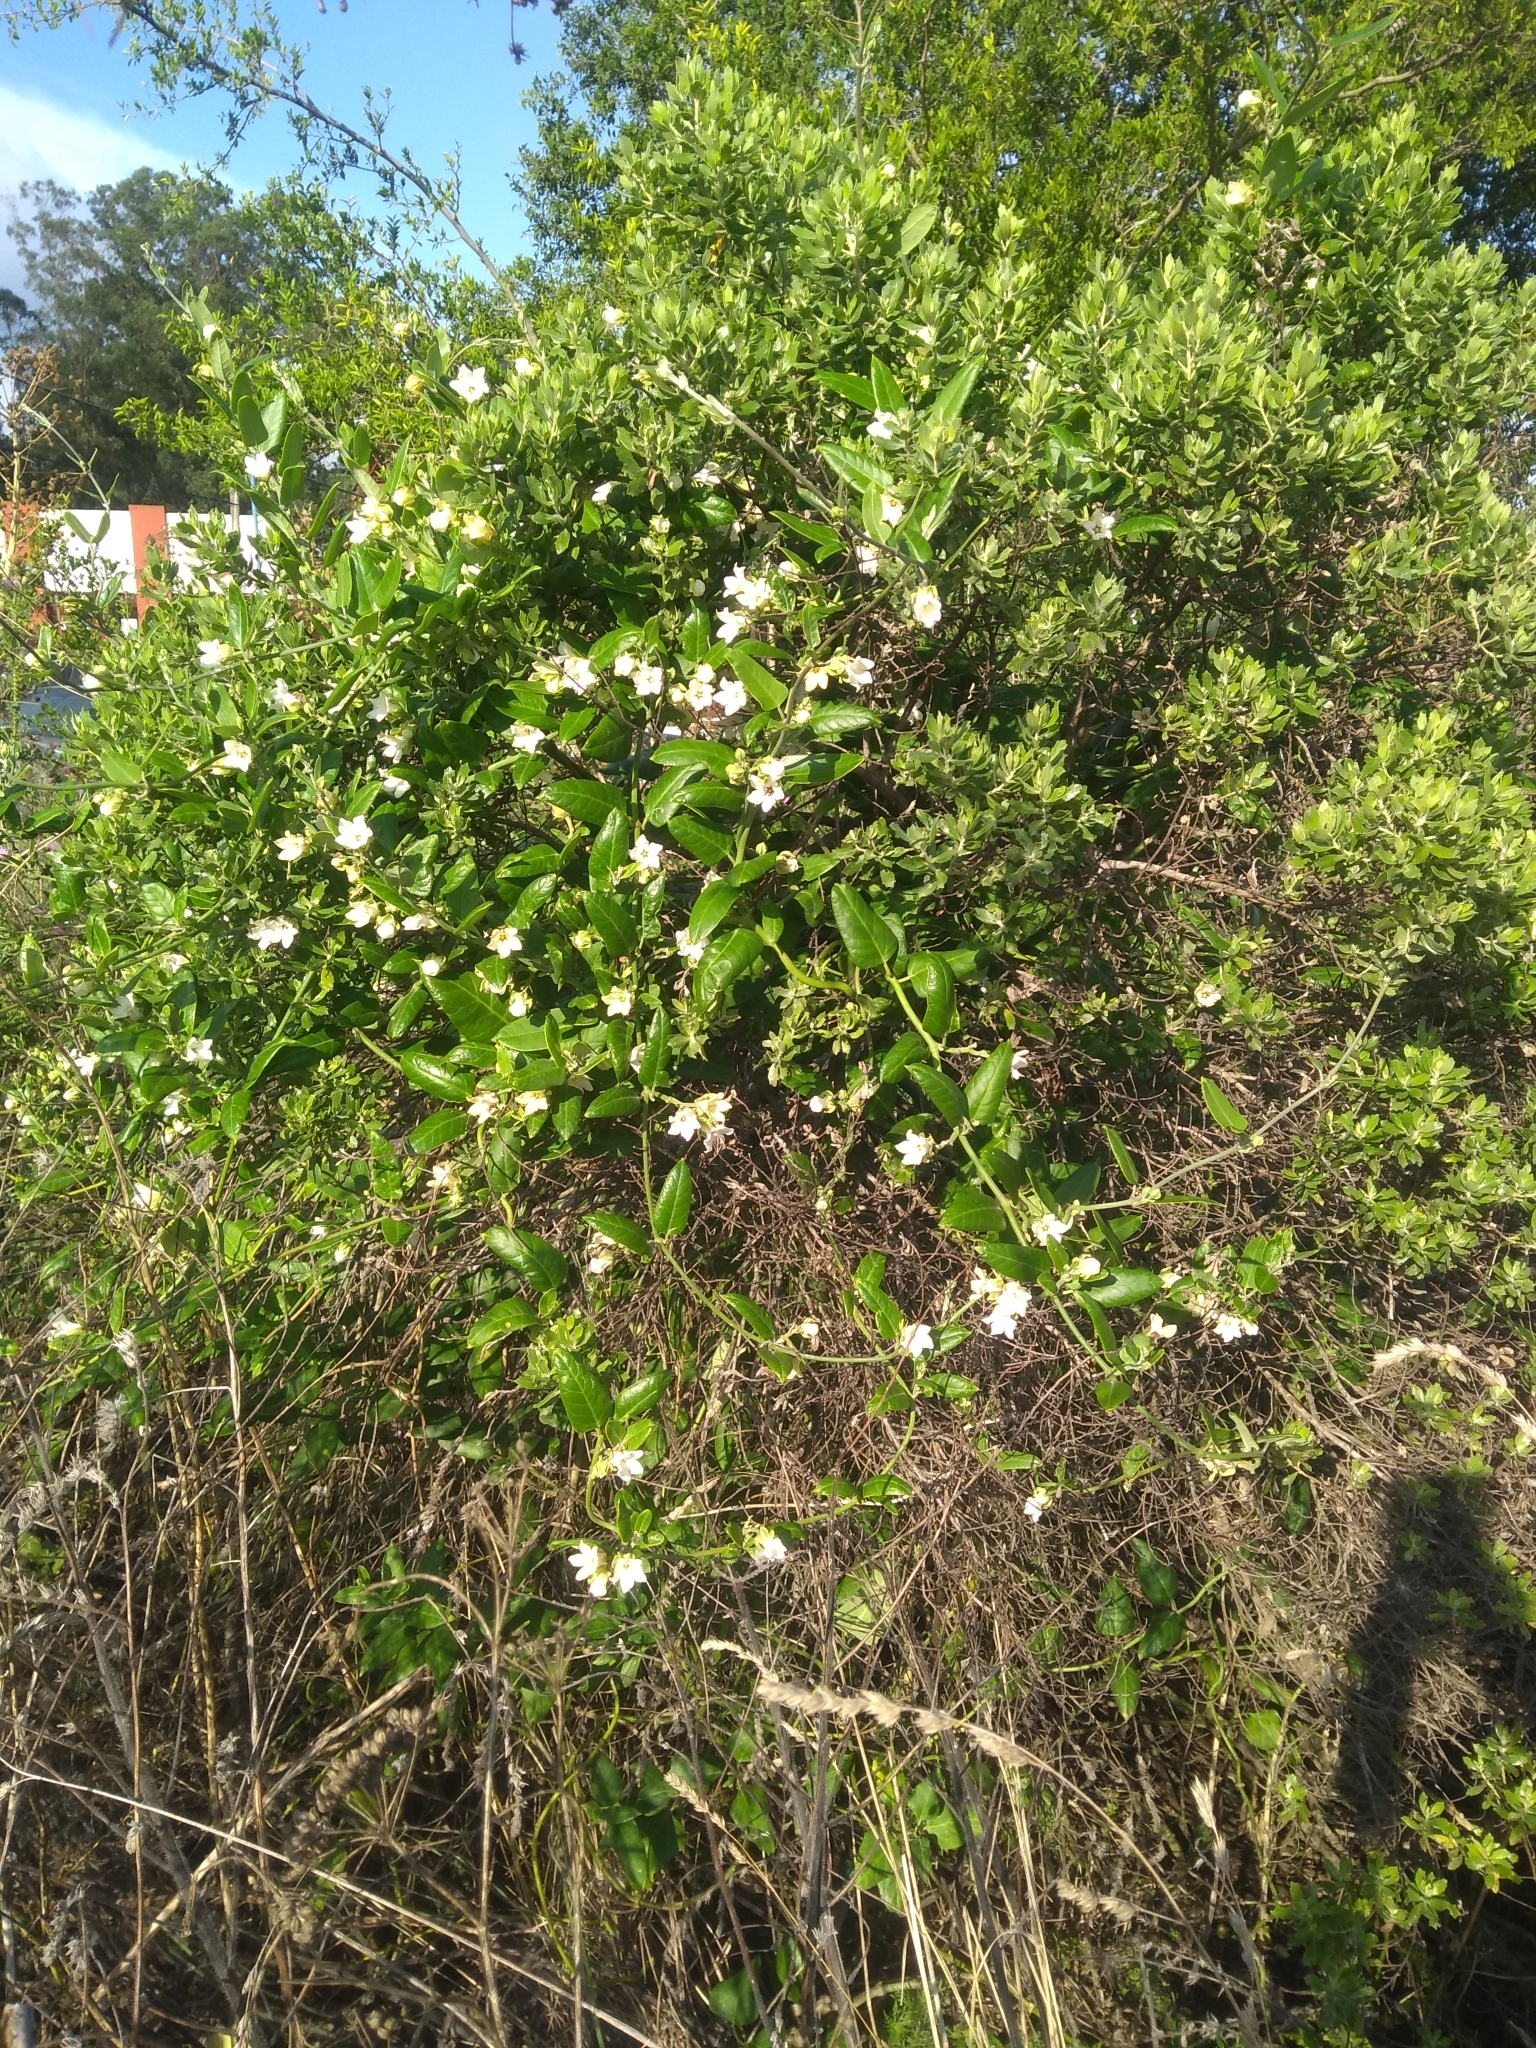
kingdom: Plantae
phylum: Tracheophyta
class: Magnoliopsida
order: Gentianales
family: Apocynaceae
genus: Araujia
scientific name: Araujia sericifera
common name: White bladderflower
